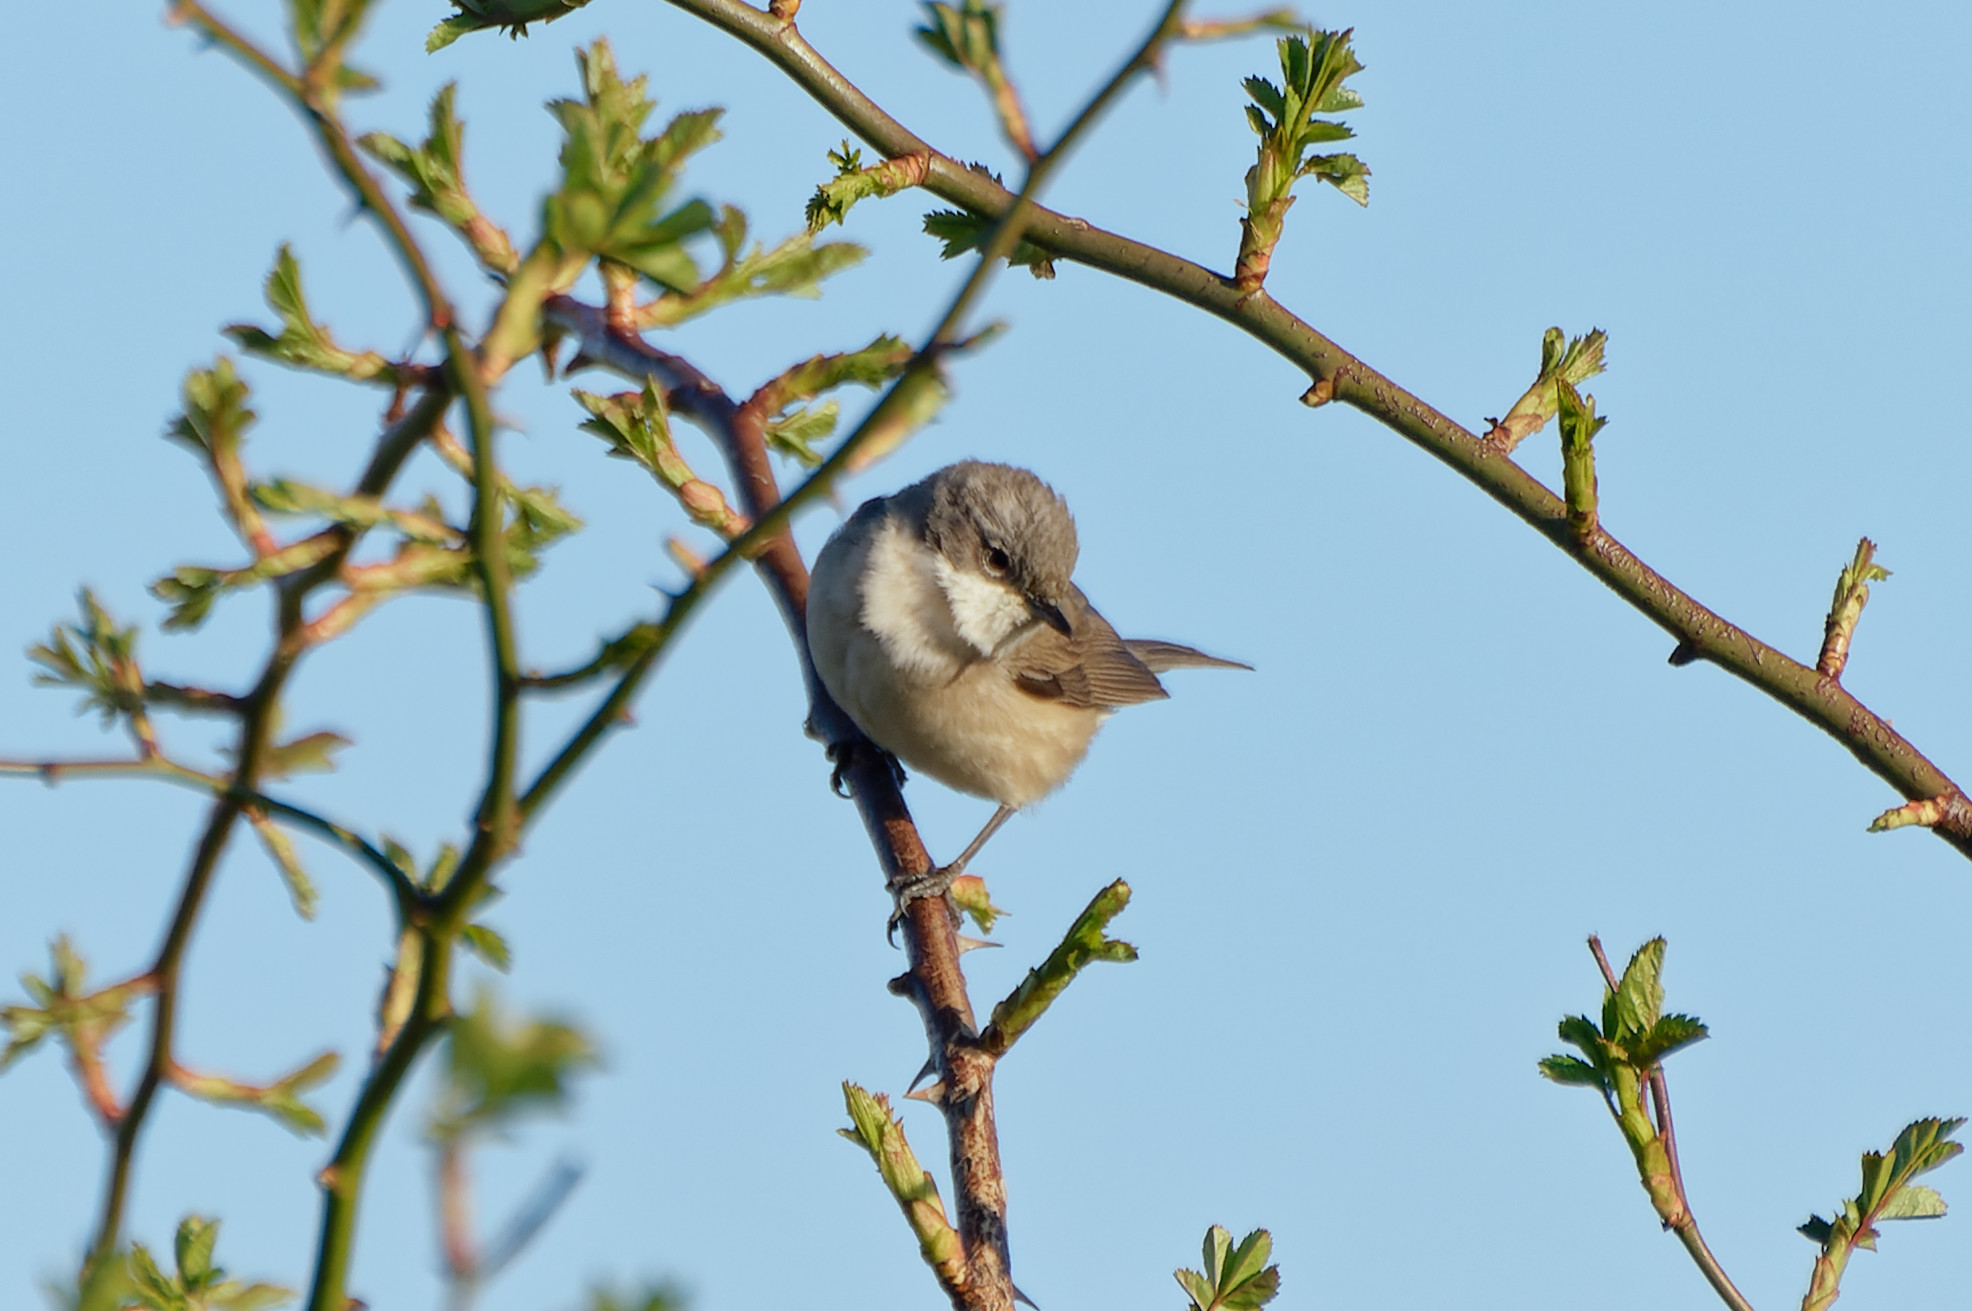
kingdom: Animalia
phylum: Chordata
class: Aves
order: Passeriformes
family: Sylviidae
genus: Sylvia
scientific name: Sylvia curruca
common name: Lesser whitethroat
